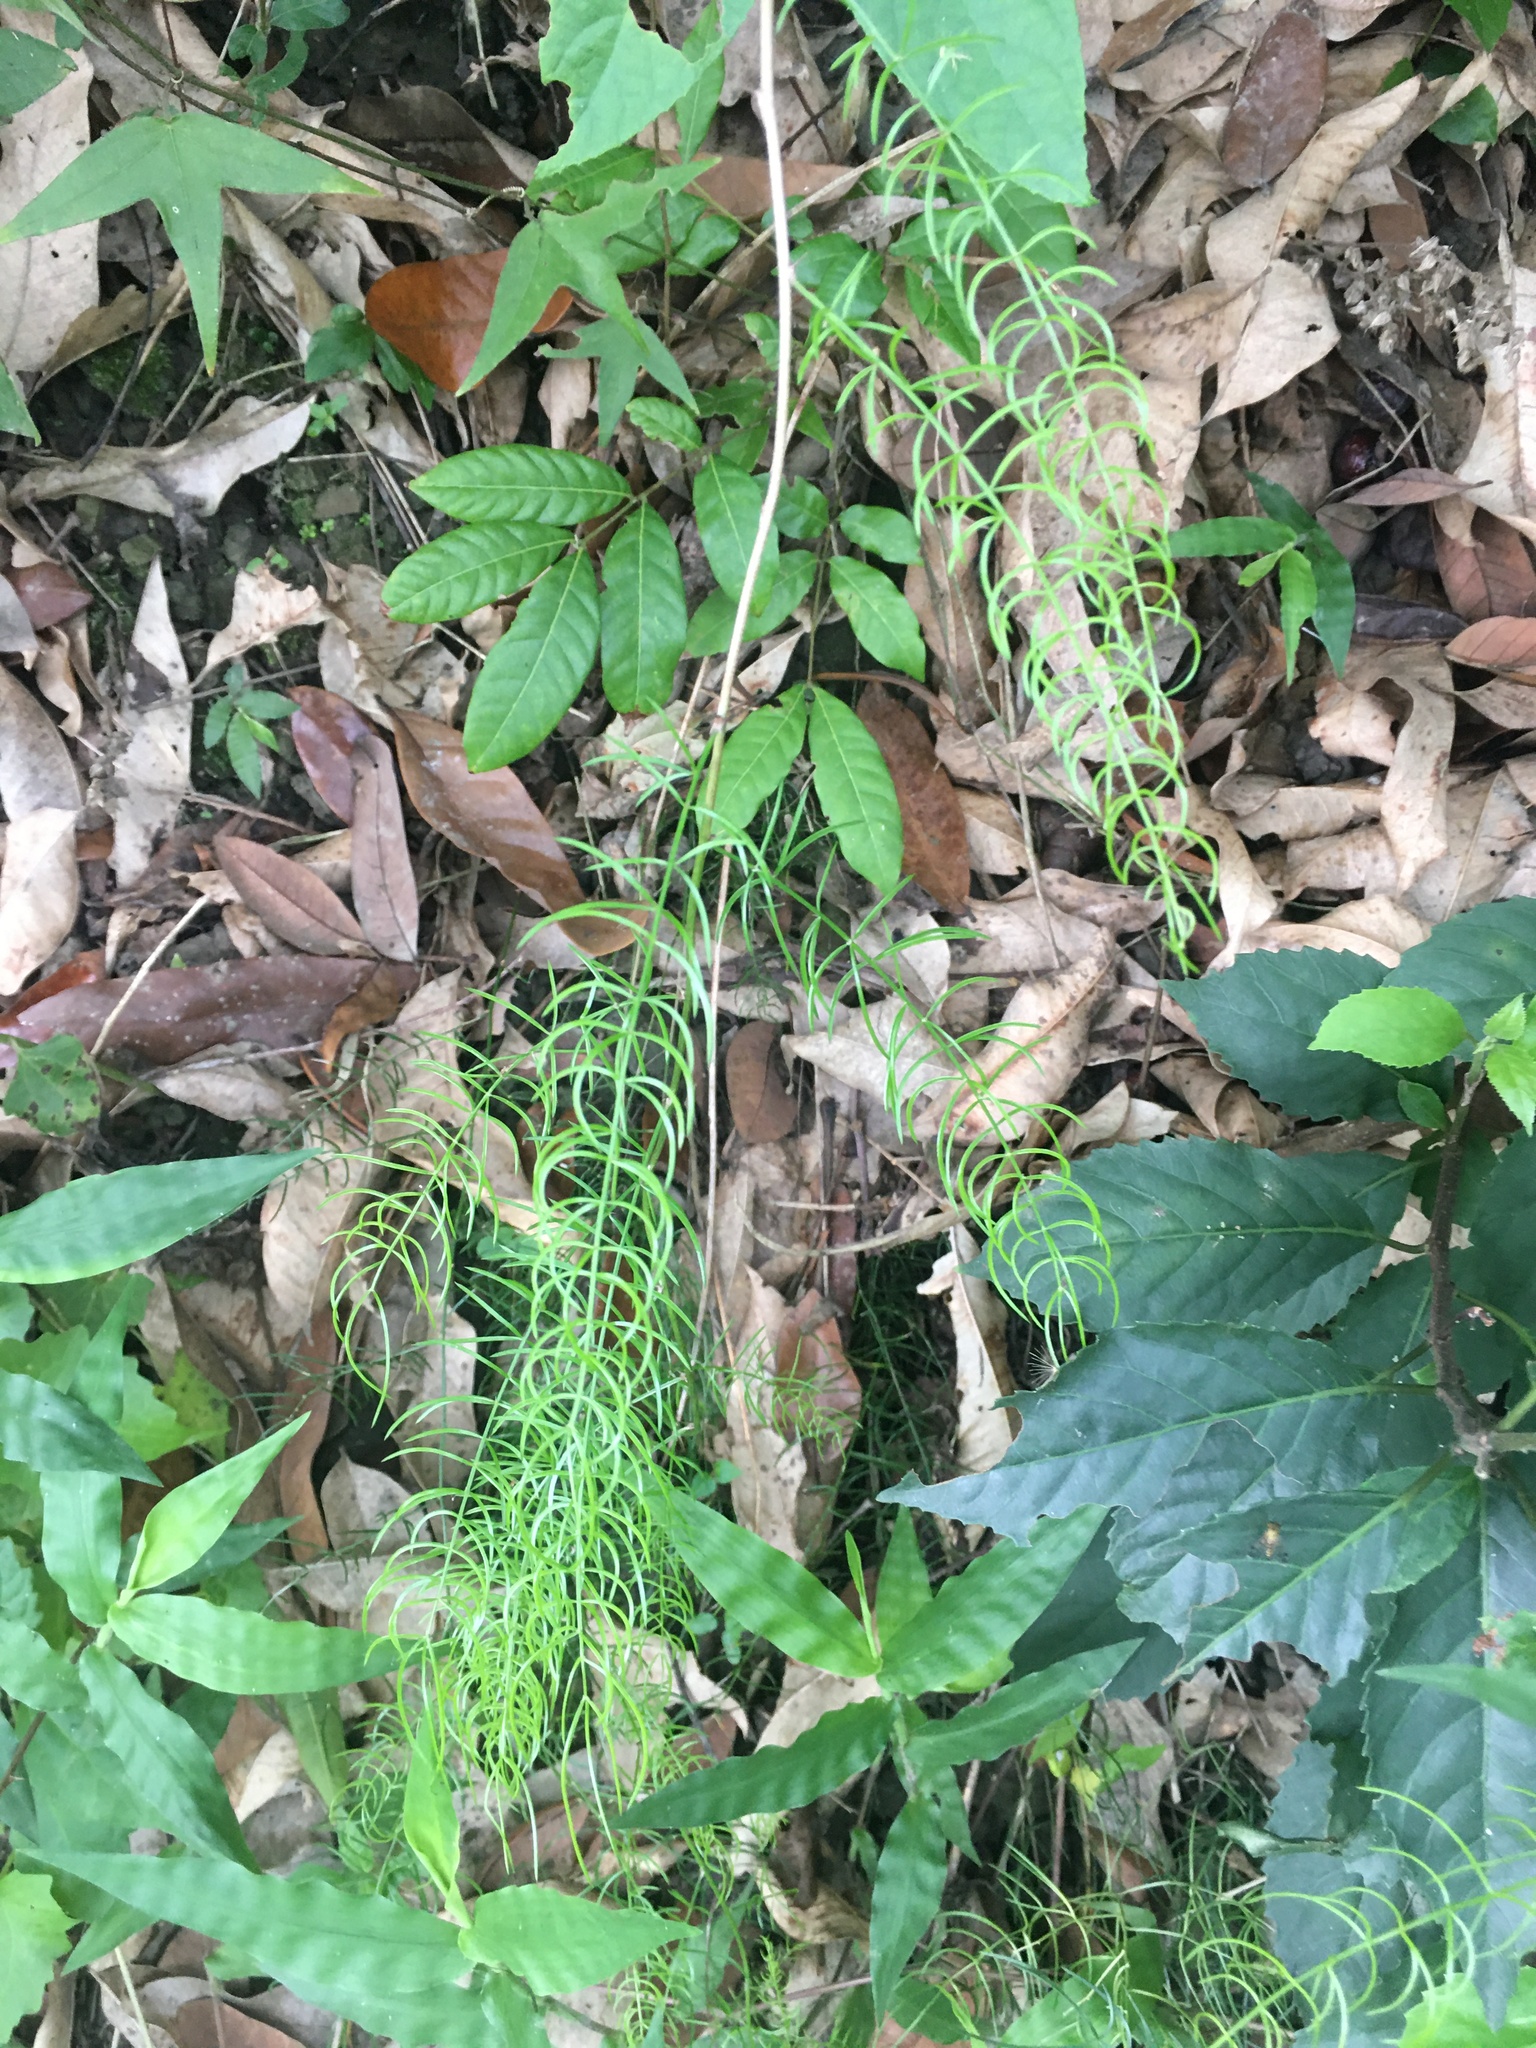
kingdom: Plantae
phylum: Tracheophyta
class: Liliopsida
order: Asparagales
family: Asparagaceae
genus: Asparagus
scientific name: Asparagus cochinchinensis
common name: Chinese asparagus
